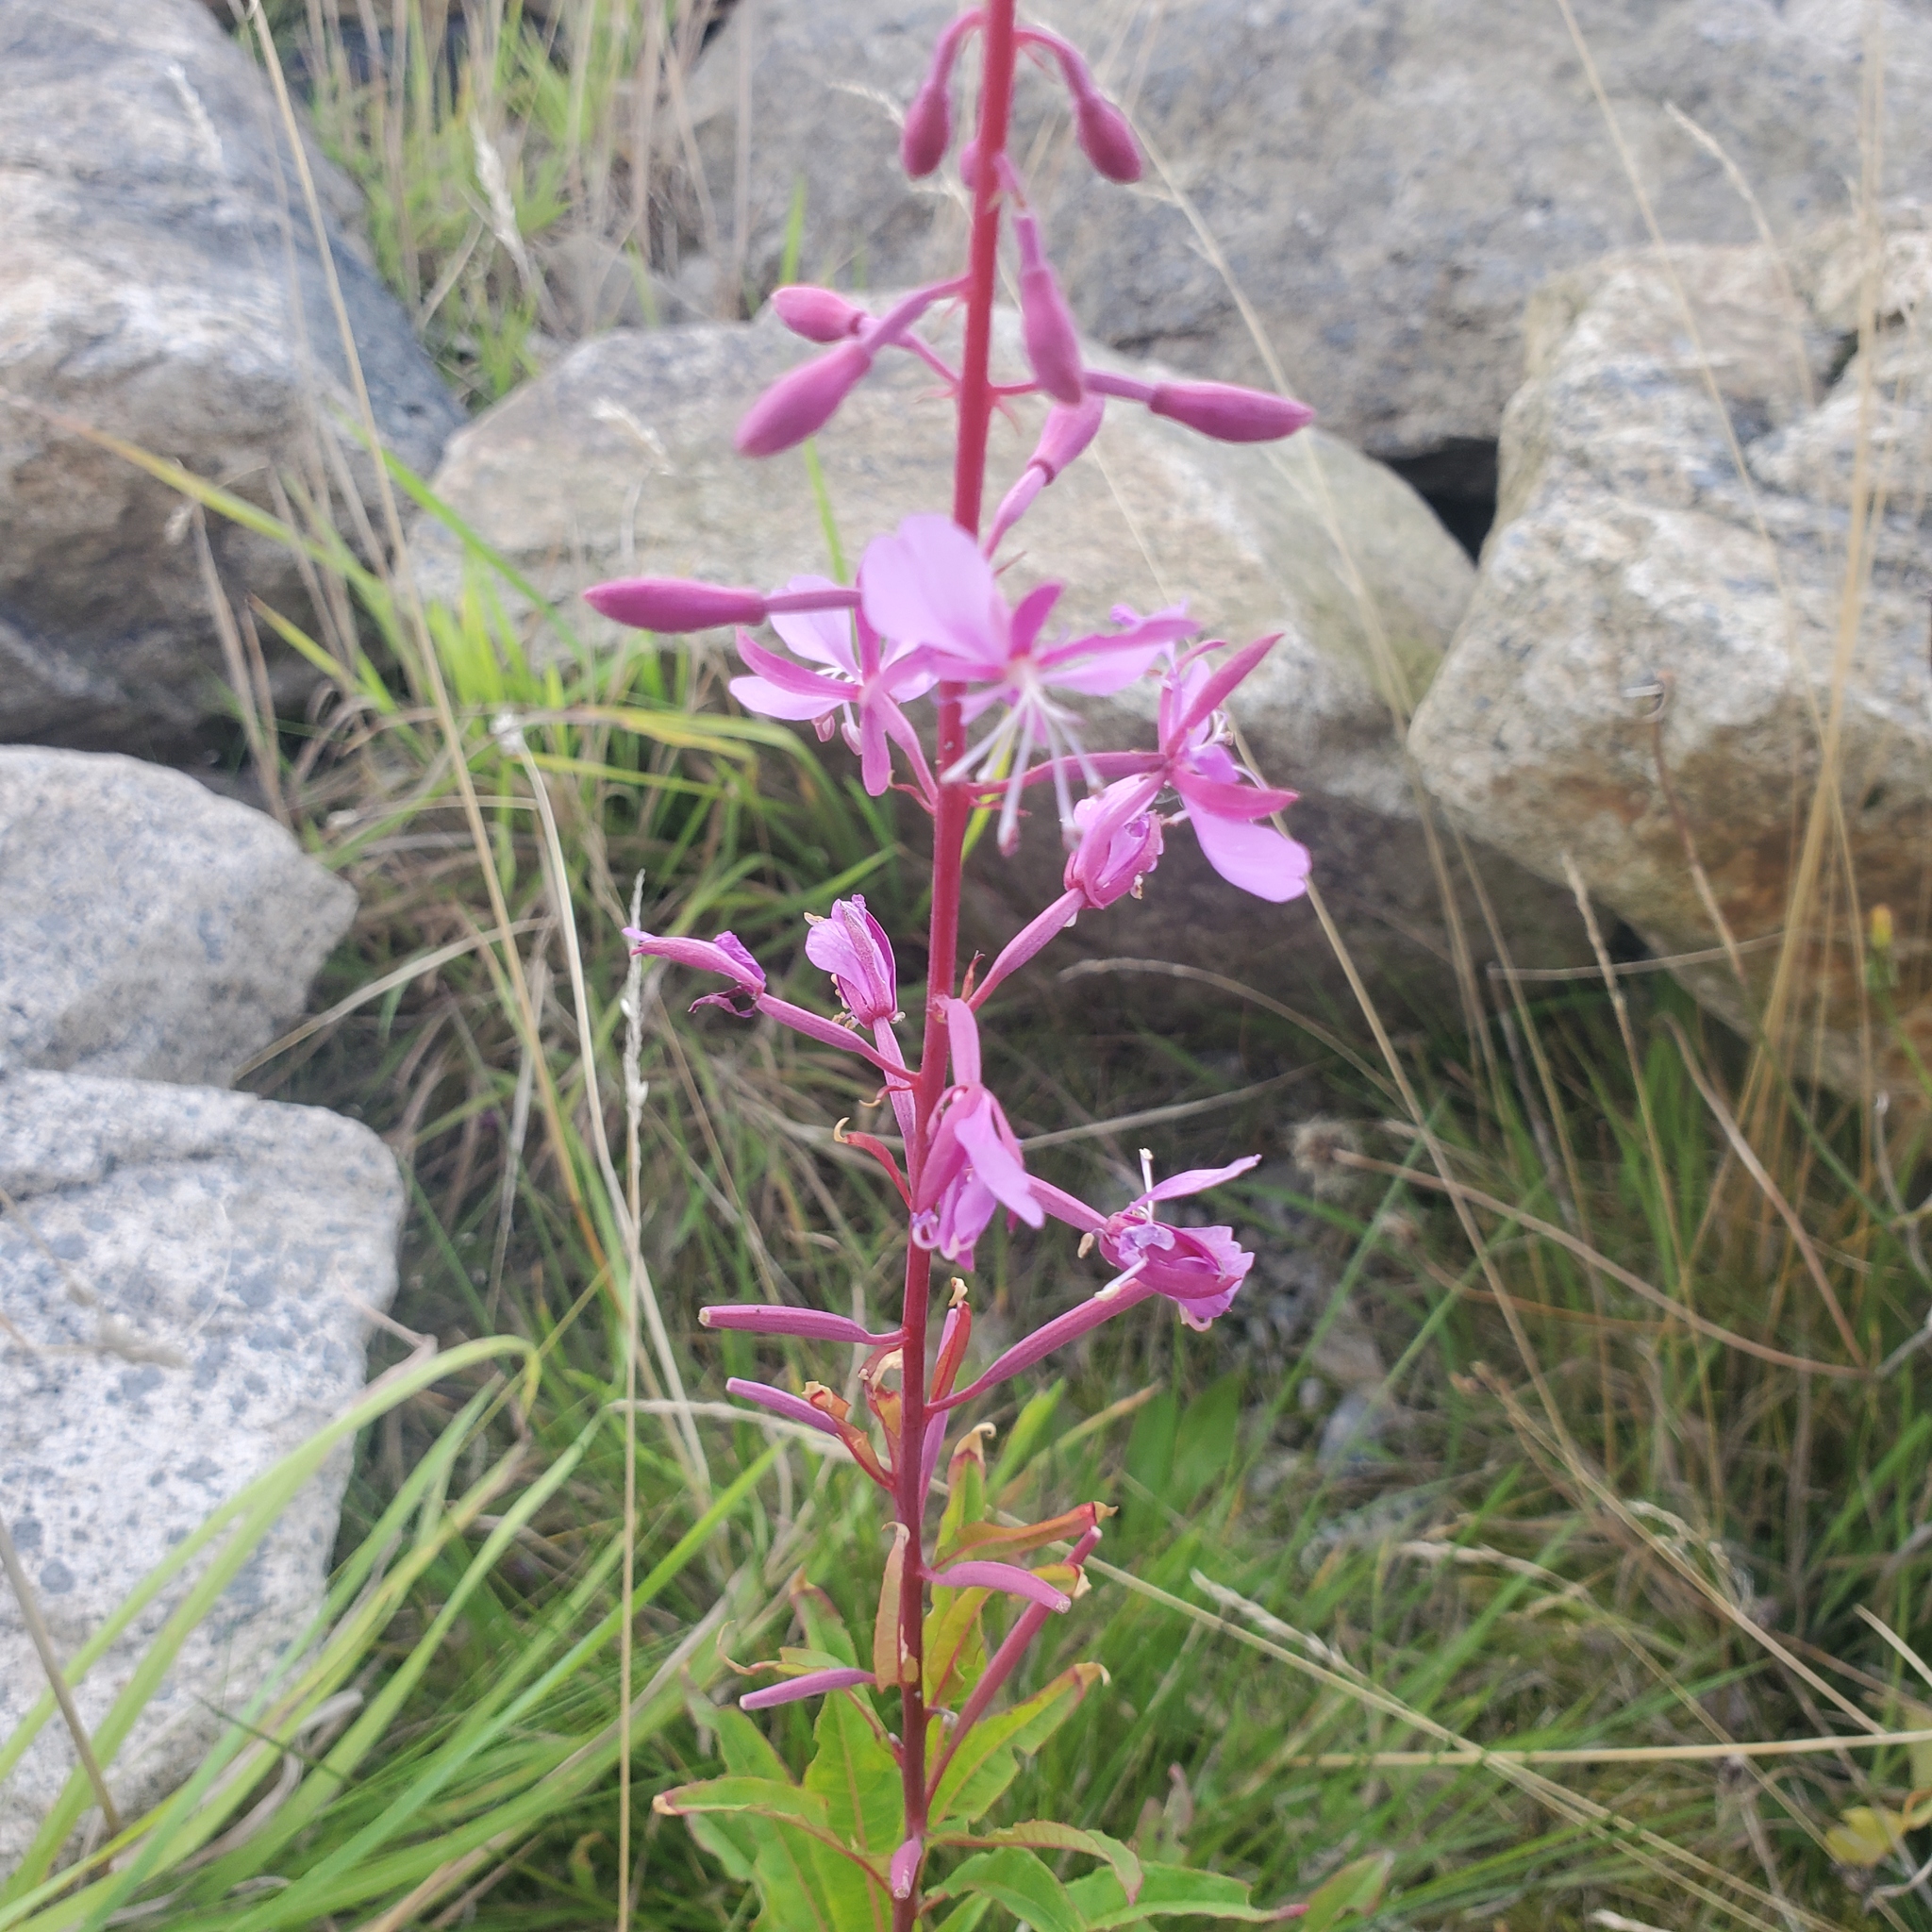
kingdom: Plantae
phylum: Tracheophyta
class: Magnoliopsida
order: Myrtales
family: Onagraceae
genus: Chamaenerion
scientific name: Chamaenerion angustifolium
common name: Fireweed
